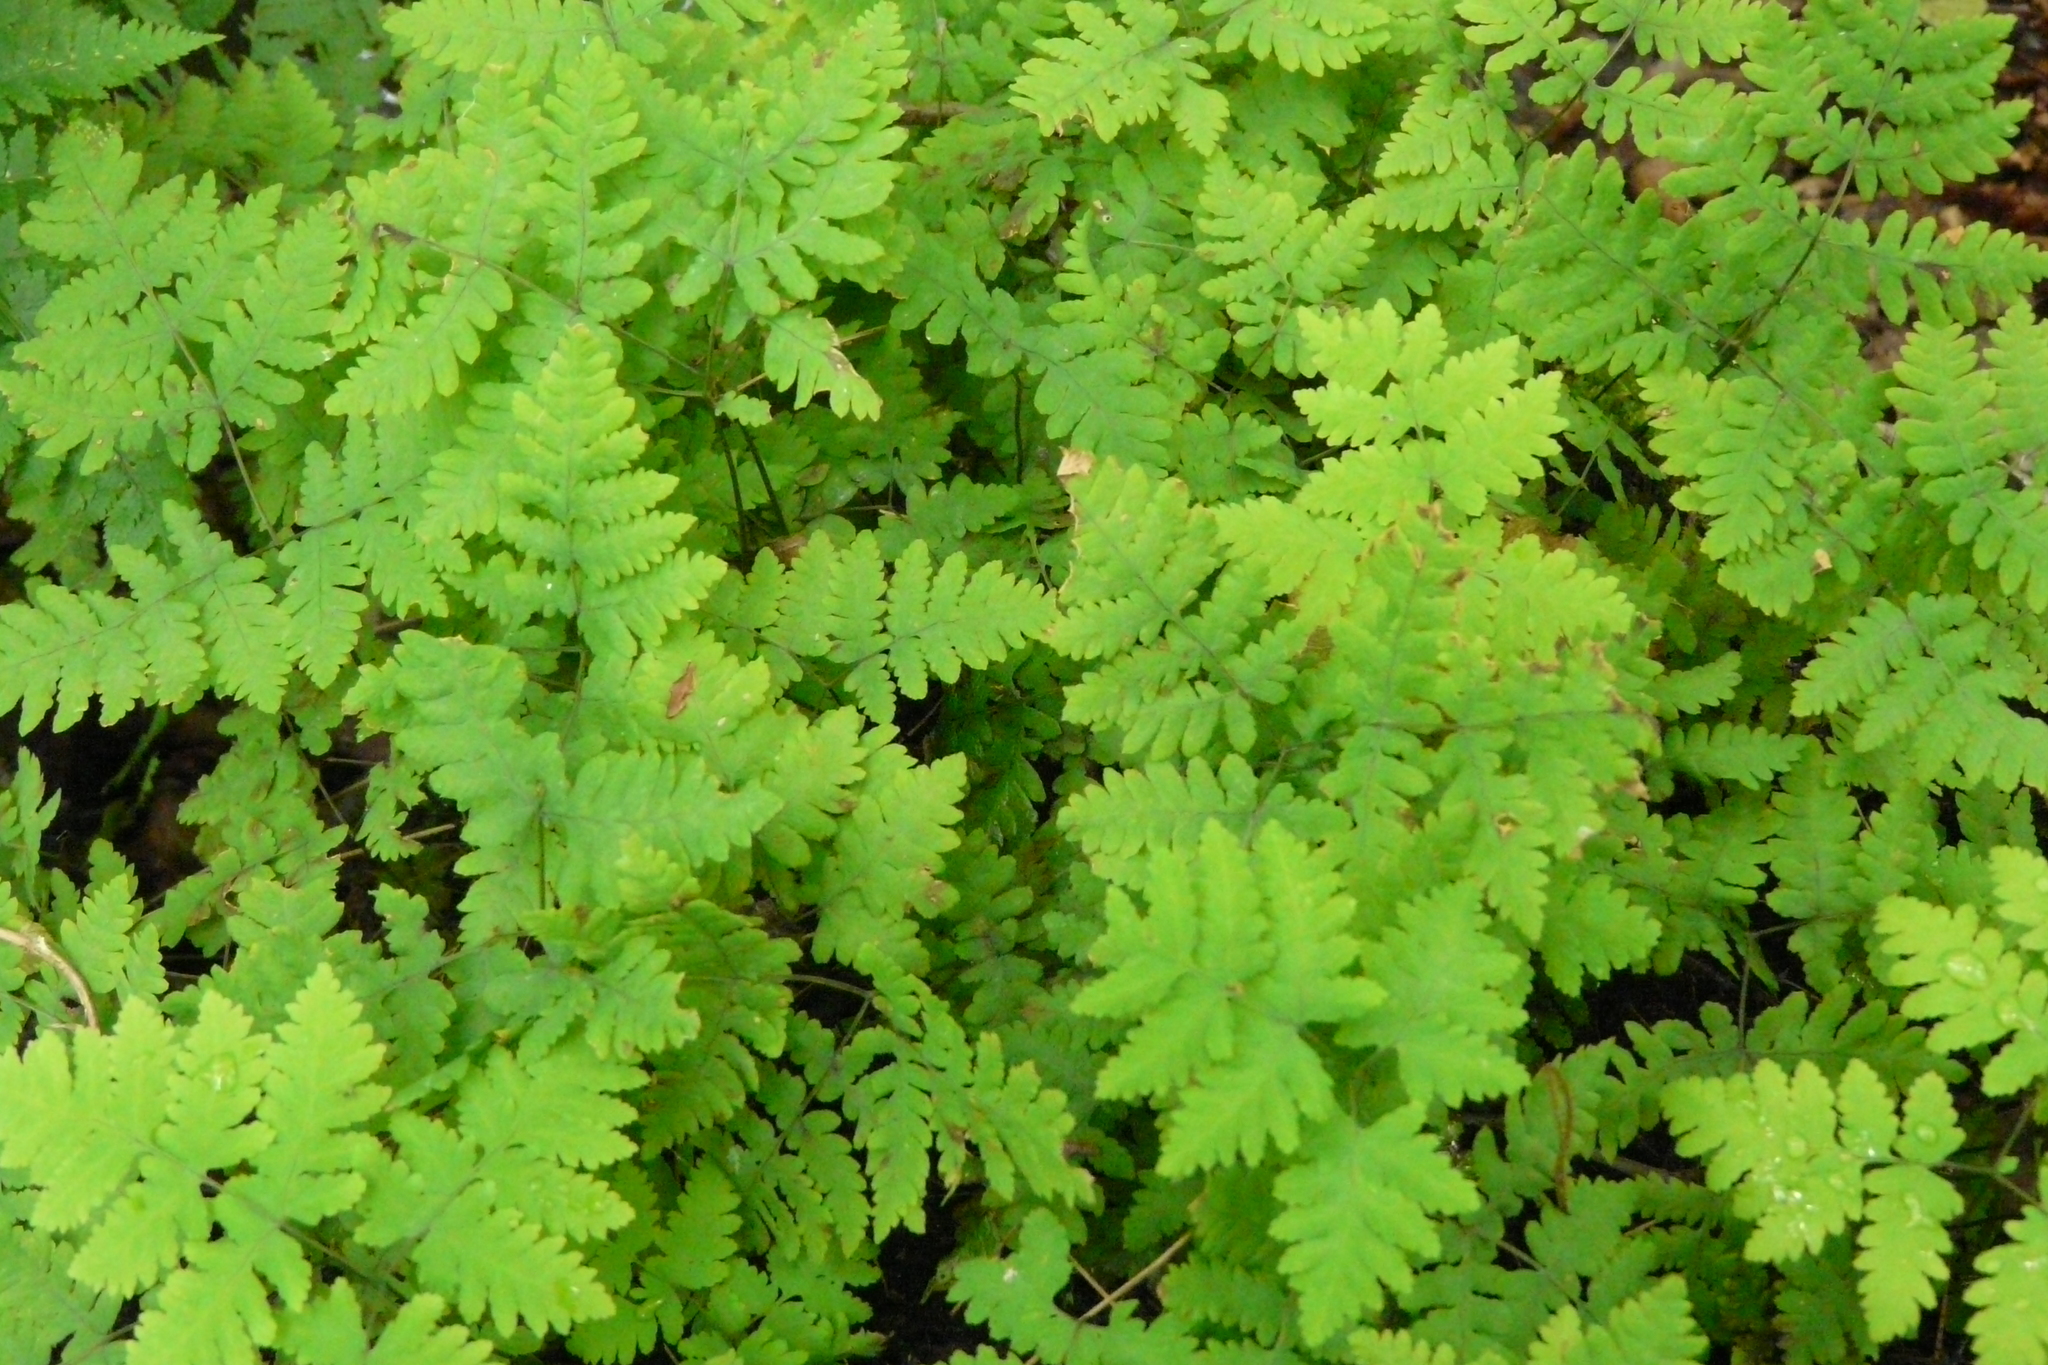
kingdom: Plantae
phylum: Tracheophyta
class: Polypodiopsida
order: Polypodiales
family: Cystopteridaceae
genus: Gymnocarpium
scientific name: Gymnocarpium dryopteris
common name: Oak fern
